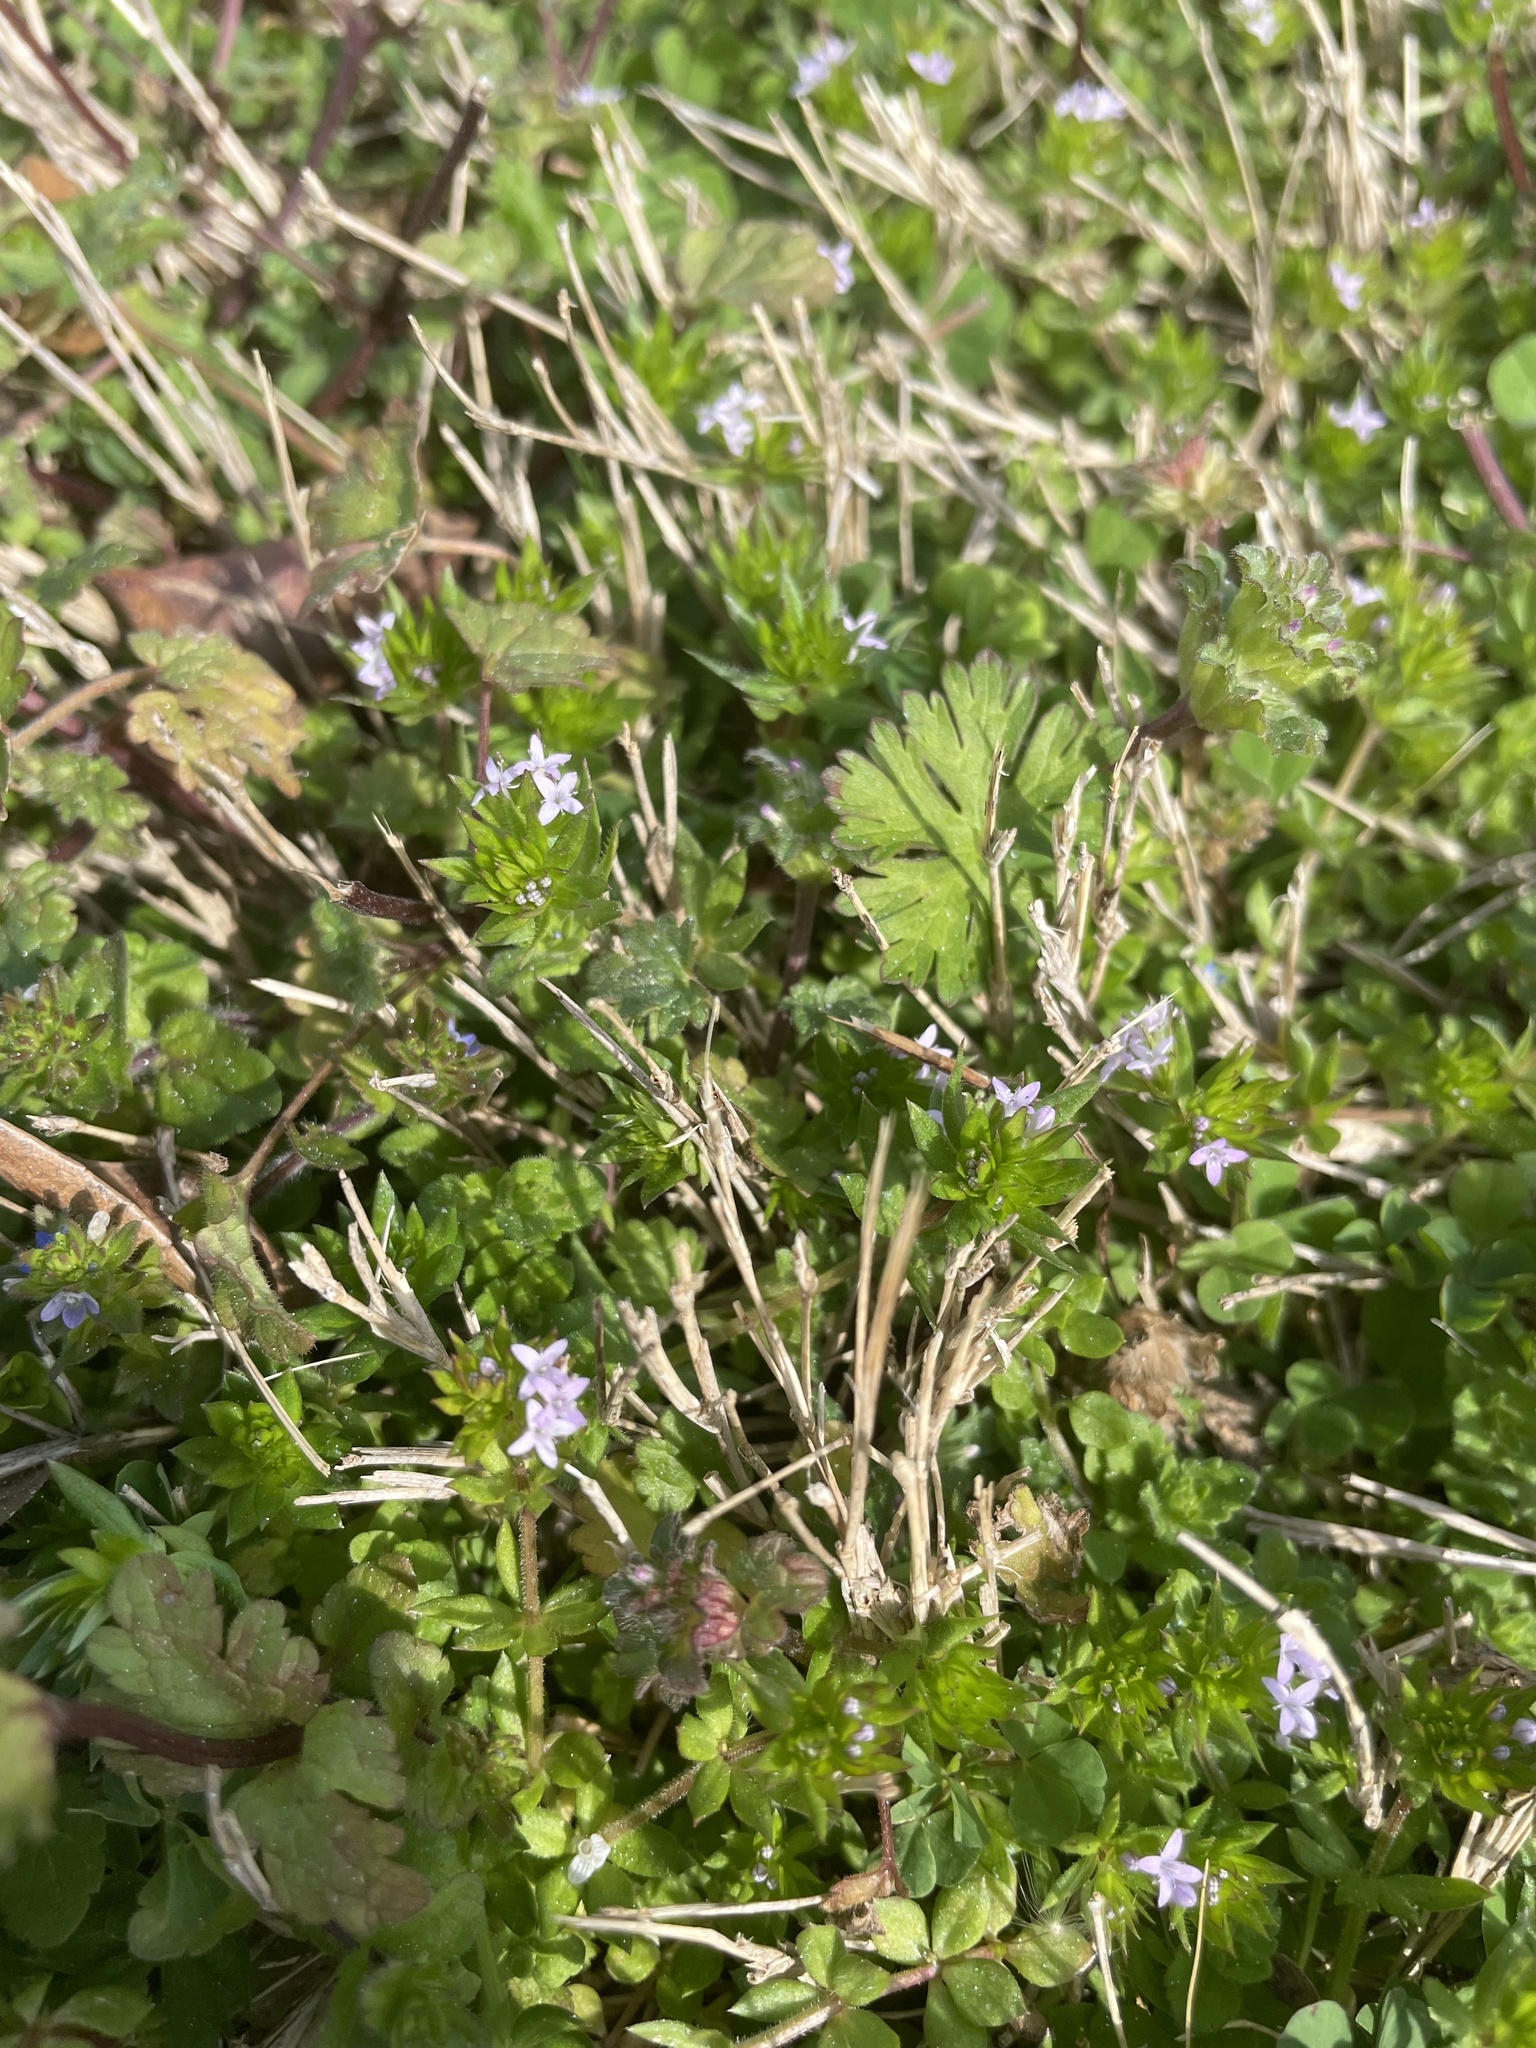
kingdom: Plantae
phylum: Tracheophyta
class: Magnoliopsida
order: Gentianales
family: Rubiaceae
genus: Sherardia
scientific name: Sherardia arvensis
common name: Field madder
